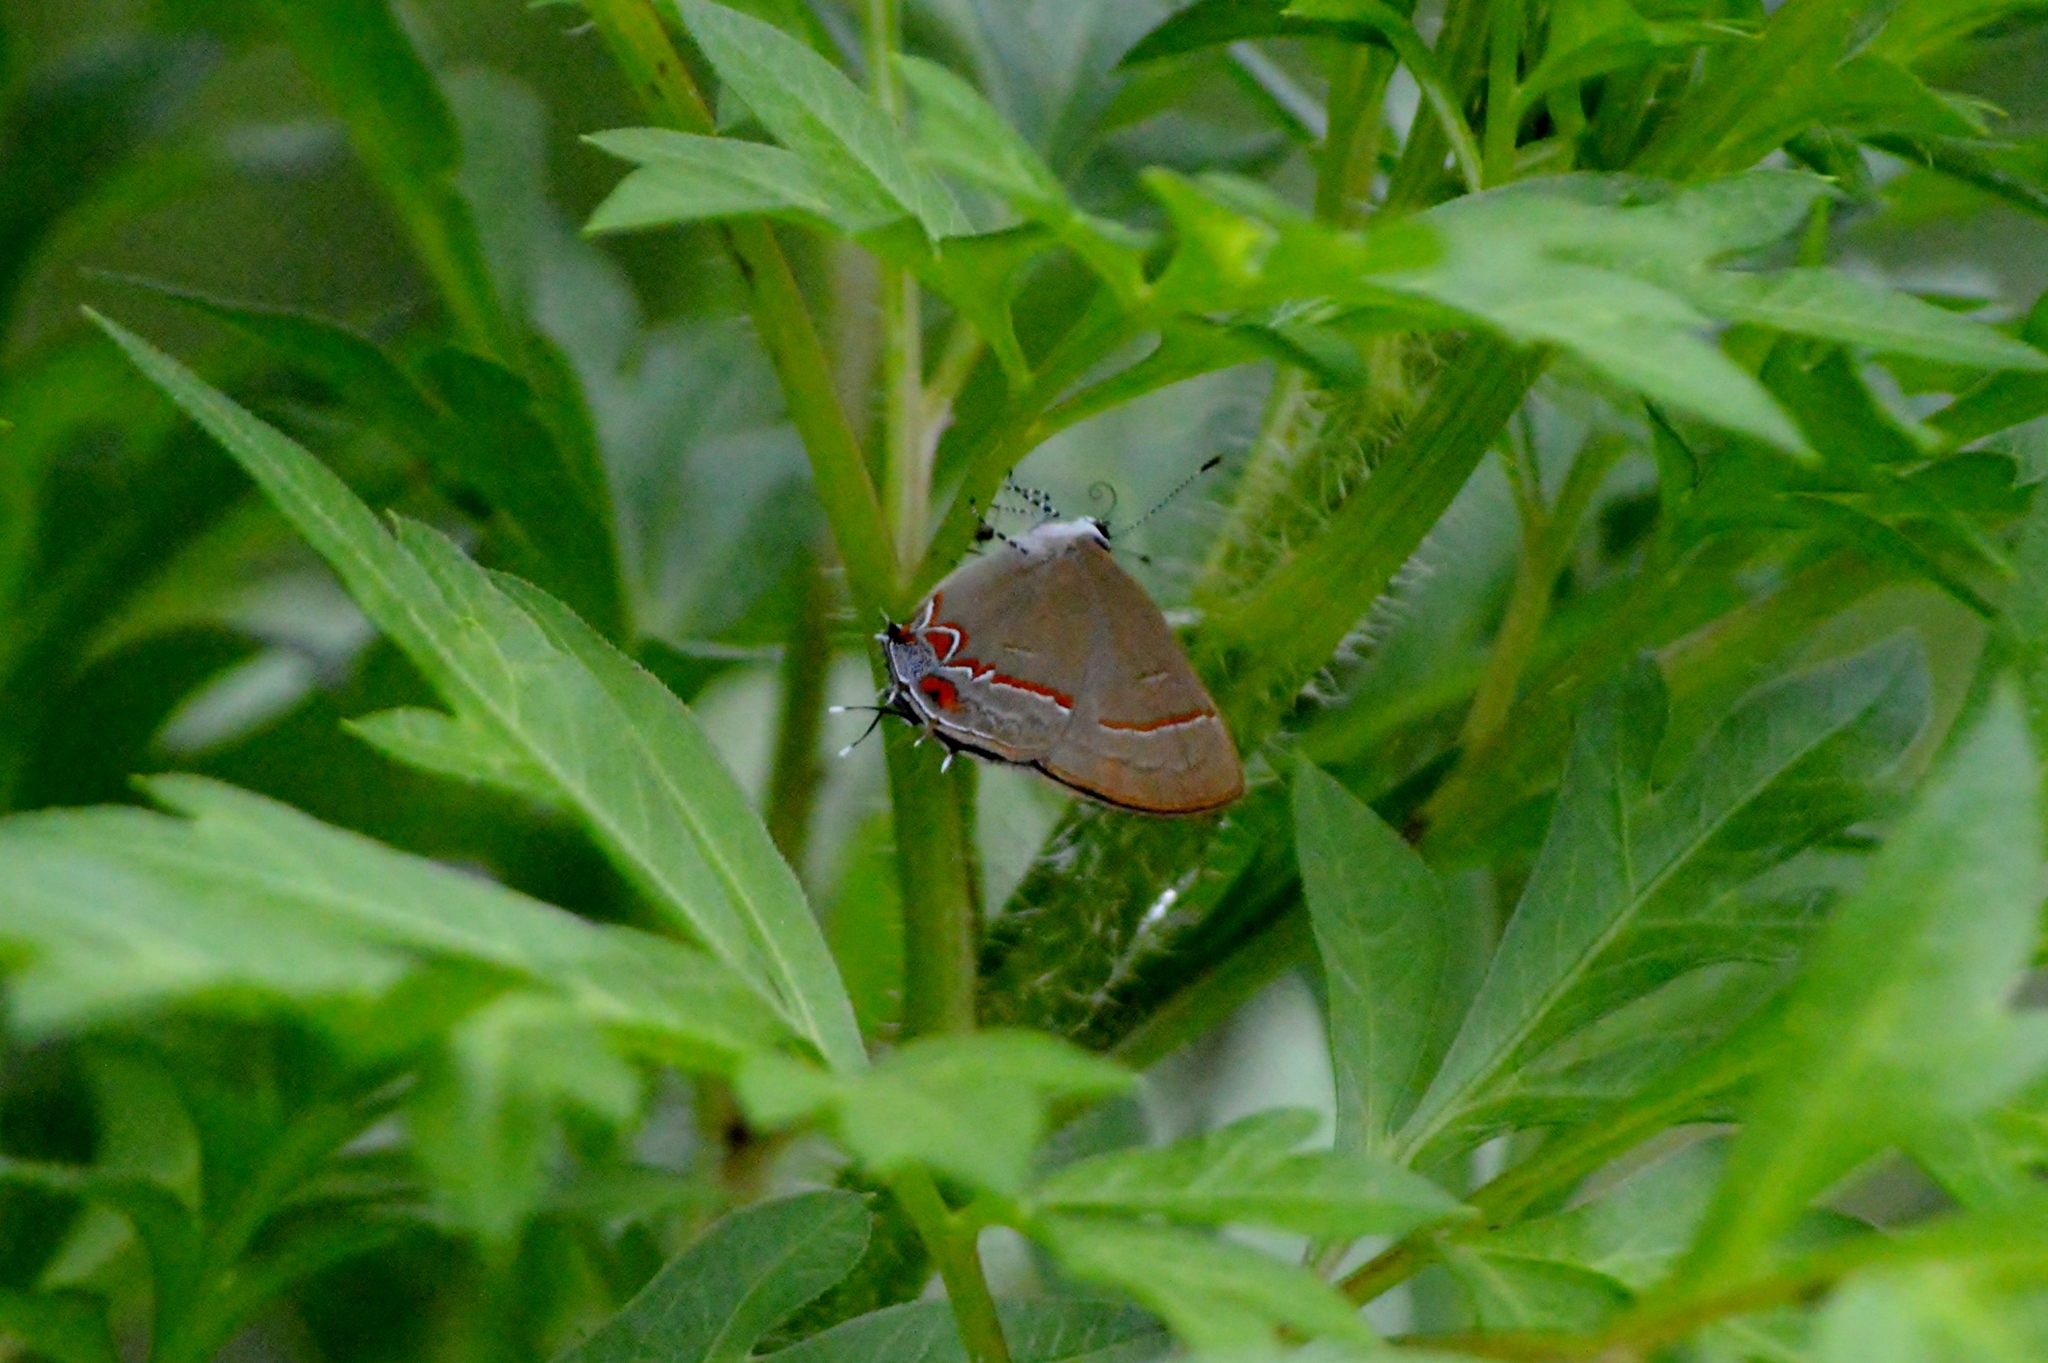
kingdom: Animalia
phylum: Arthropoda
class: Insecta
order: Lepidoptera
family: Lycaenidae
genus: Calycopis
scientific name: Calycopis caulonia
